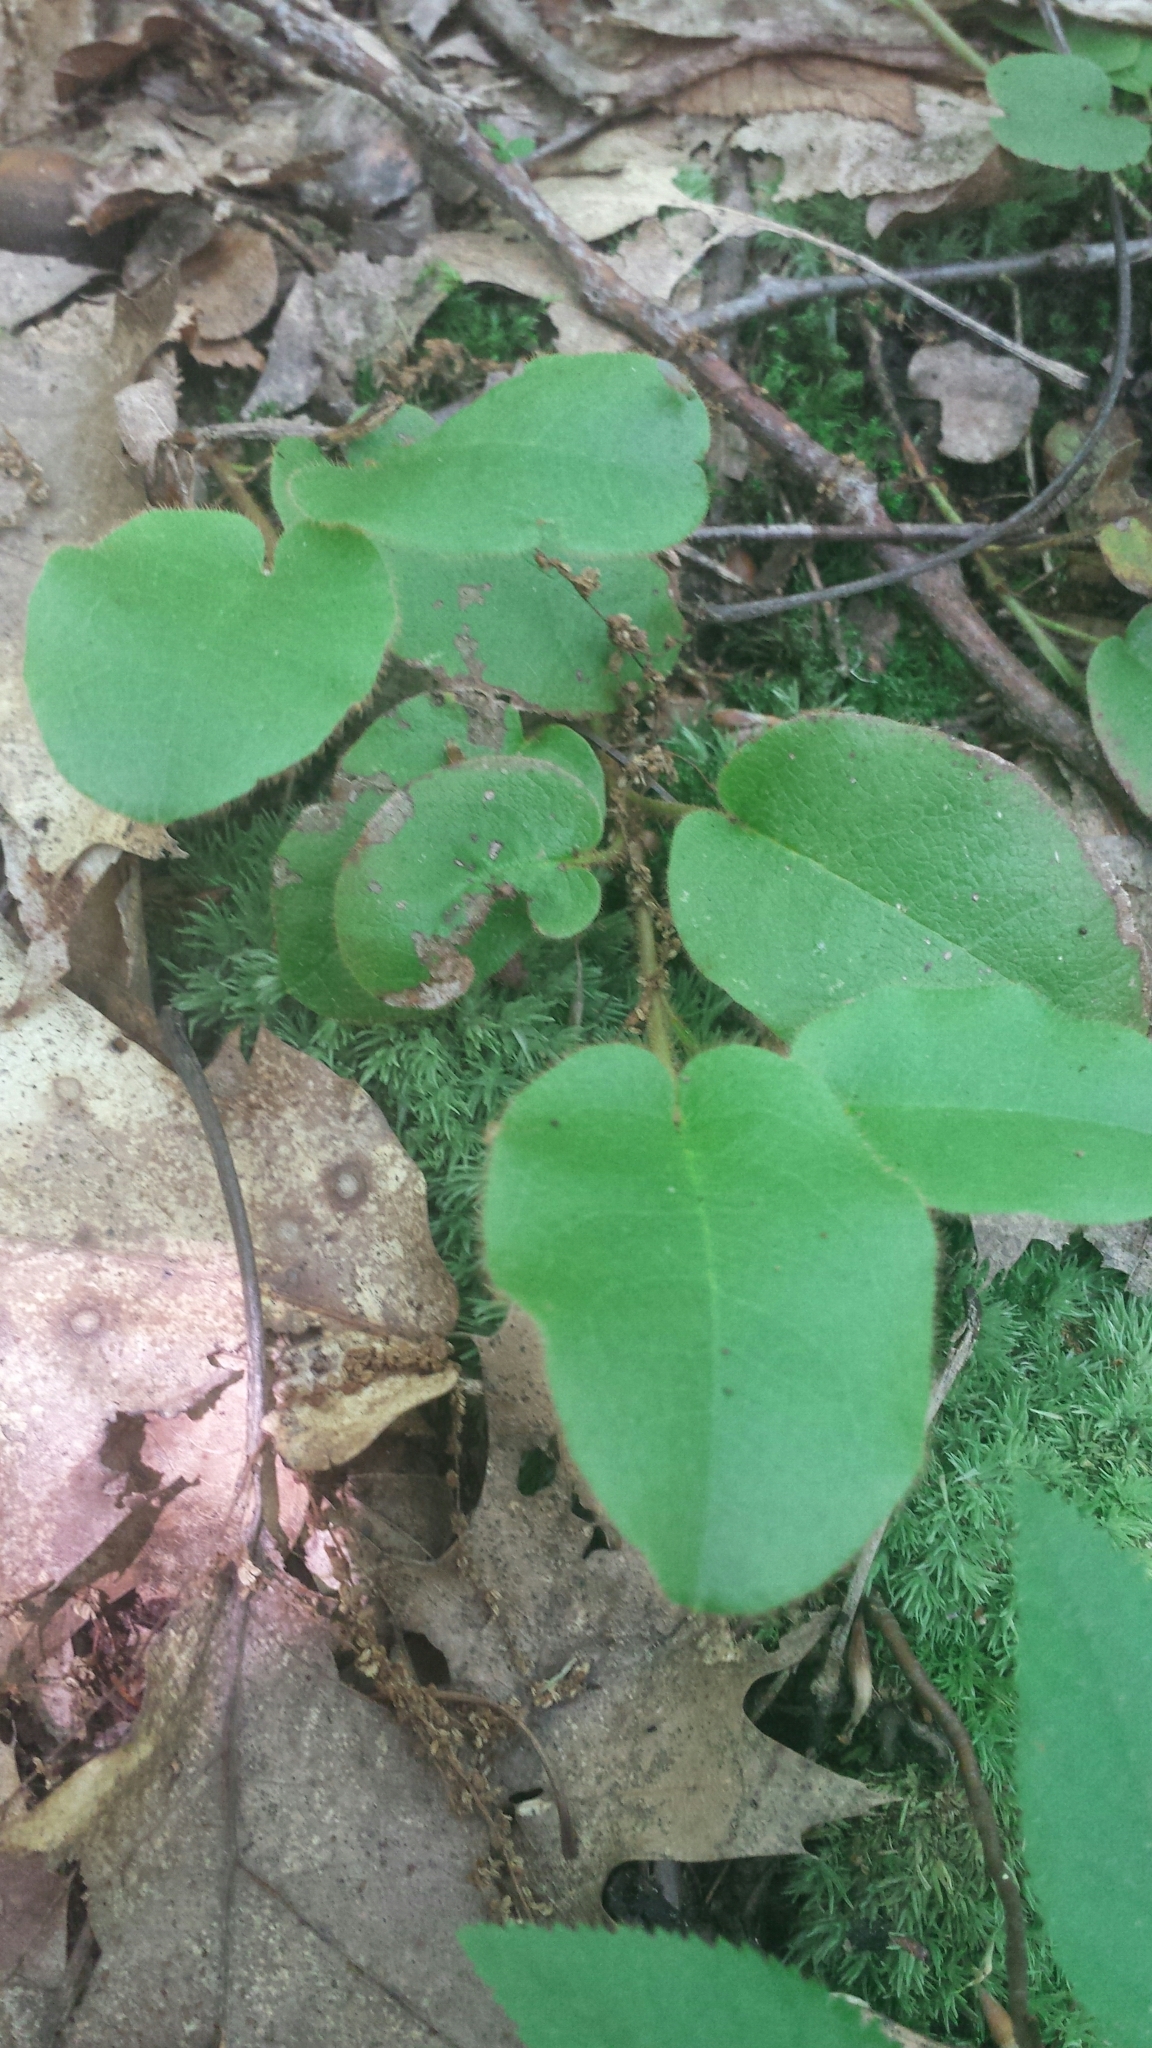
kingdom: Plantae
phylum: Tracheophyta
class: Magnoliopsida
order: Ericales
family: Ericaceae
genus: Epigaea
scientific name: Epigaea repens
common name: Gravelroot
